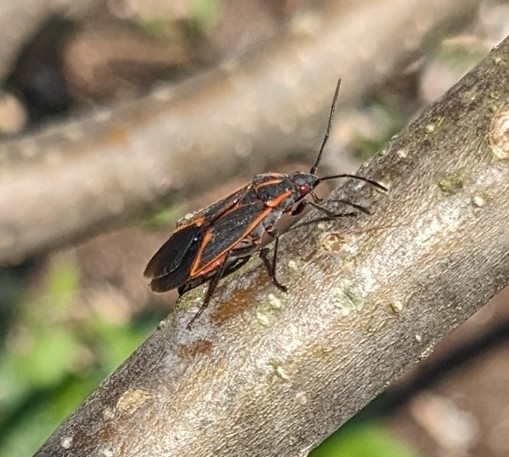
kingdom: Animalia
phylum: Arthropoda
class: Insecta
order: Hemiptera
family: Rhopalidae
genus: Boisea
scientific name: Boisea trivittata
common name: Boxelder bug
